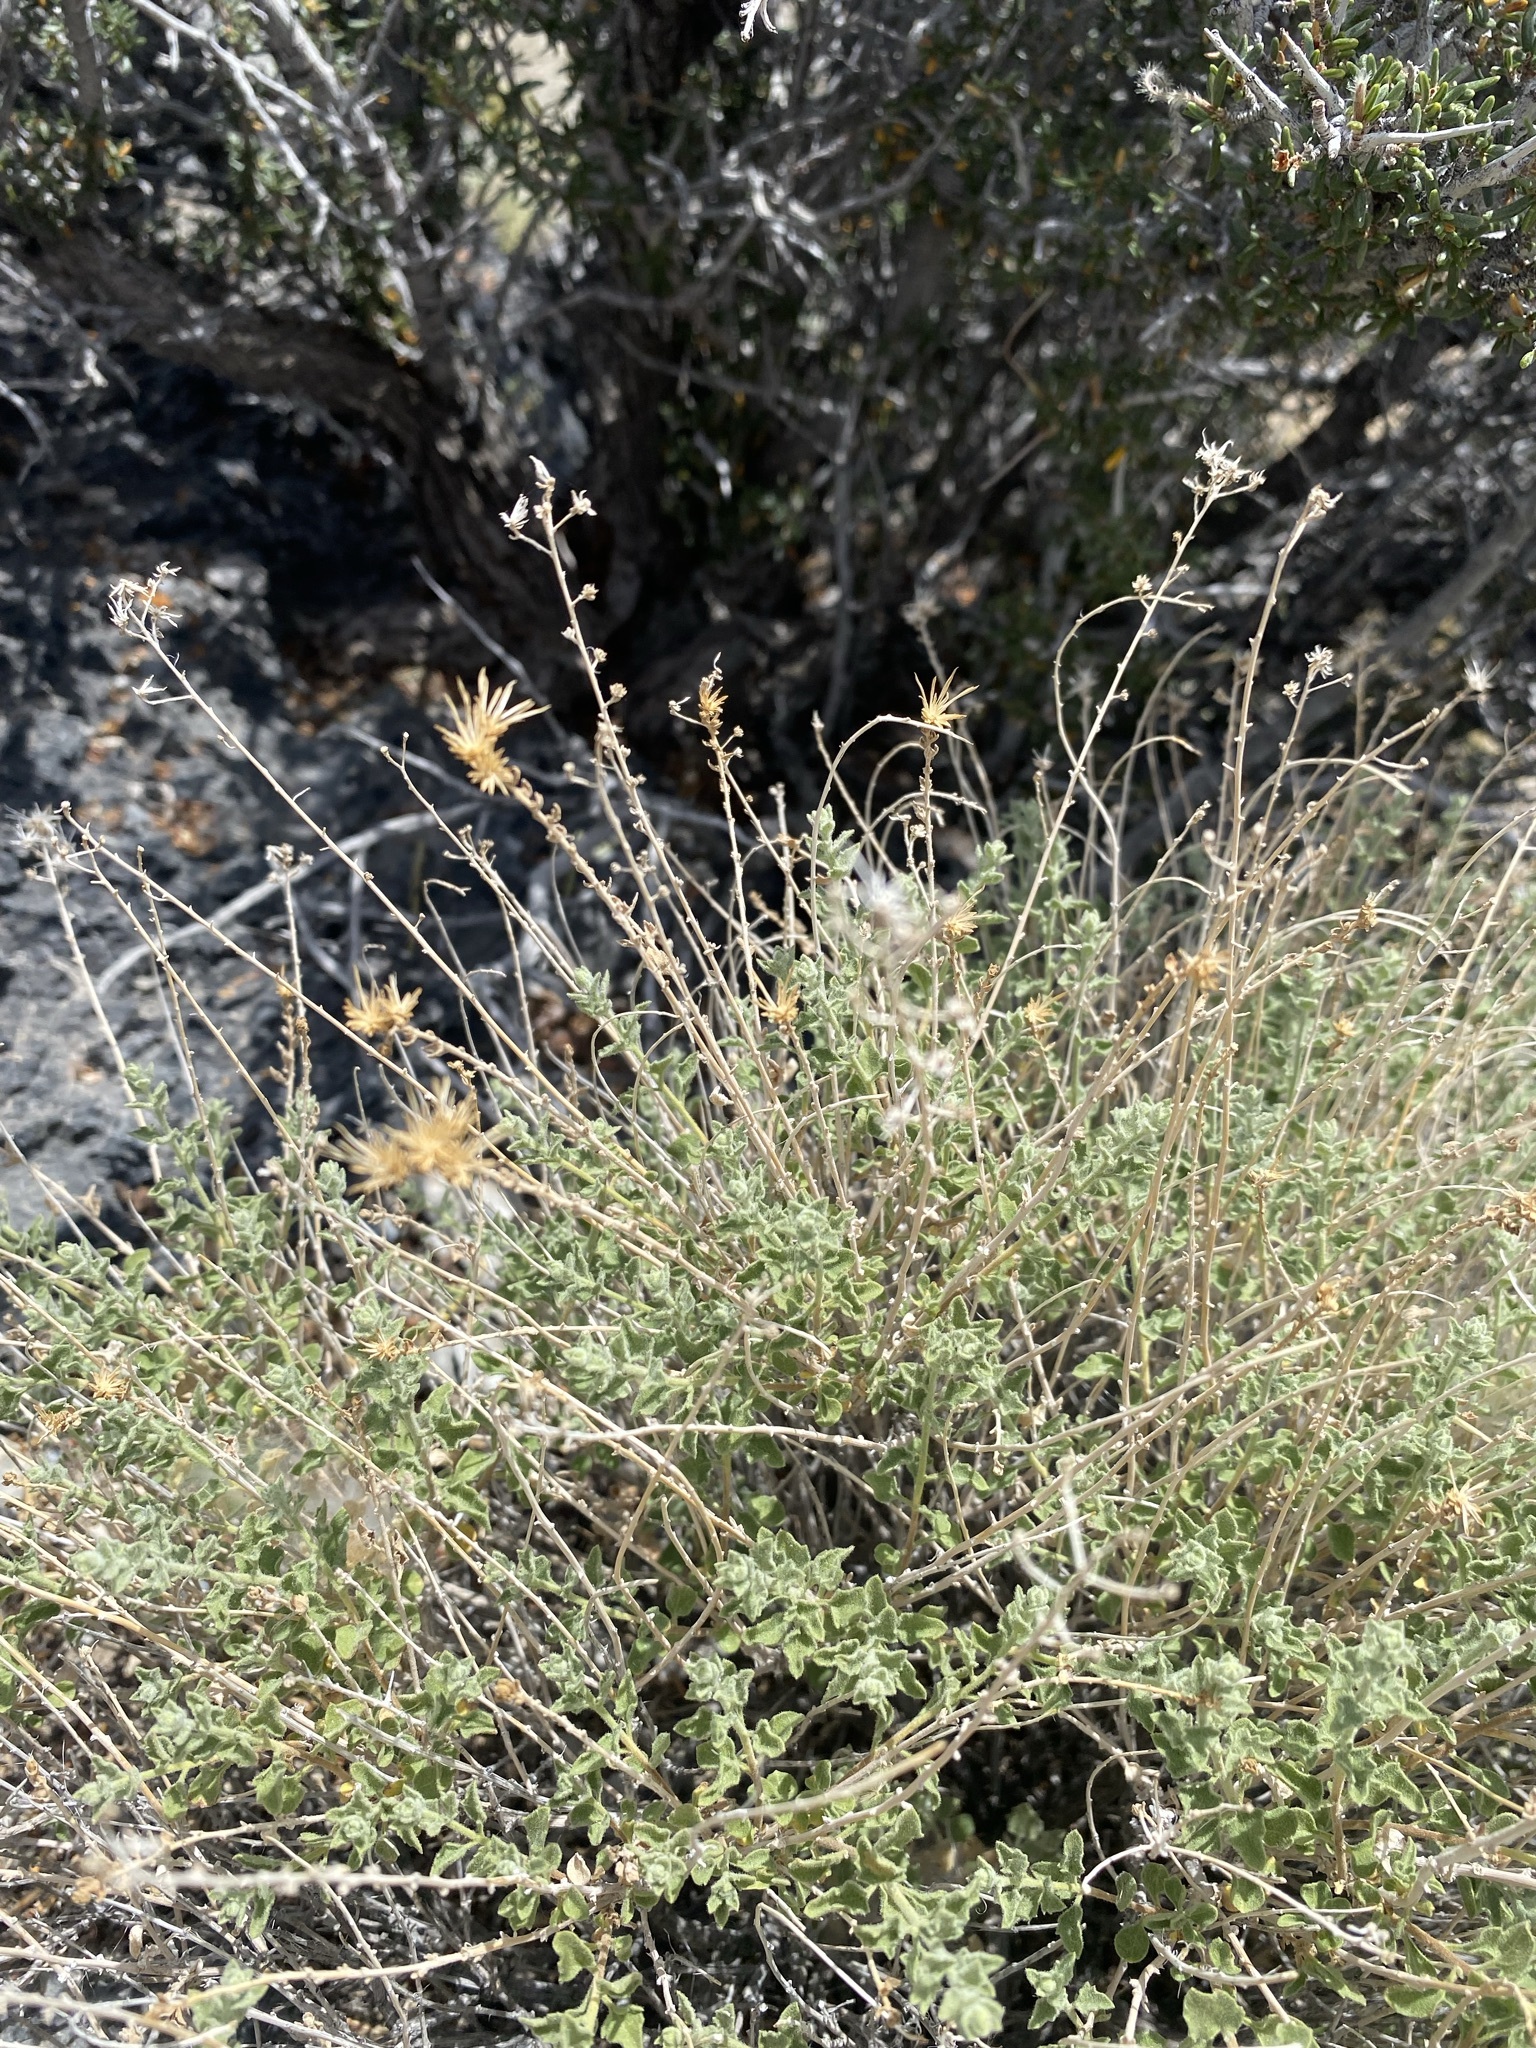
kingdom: Plantae
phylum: Tracheophyta
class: Magnoliopsida
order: Asterales
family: Asteraceae
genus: Brickellia
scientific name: Brickellia microphylla
